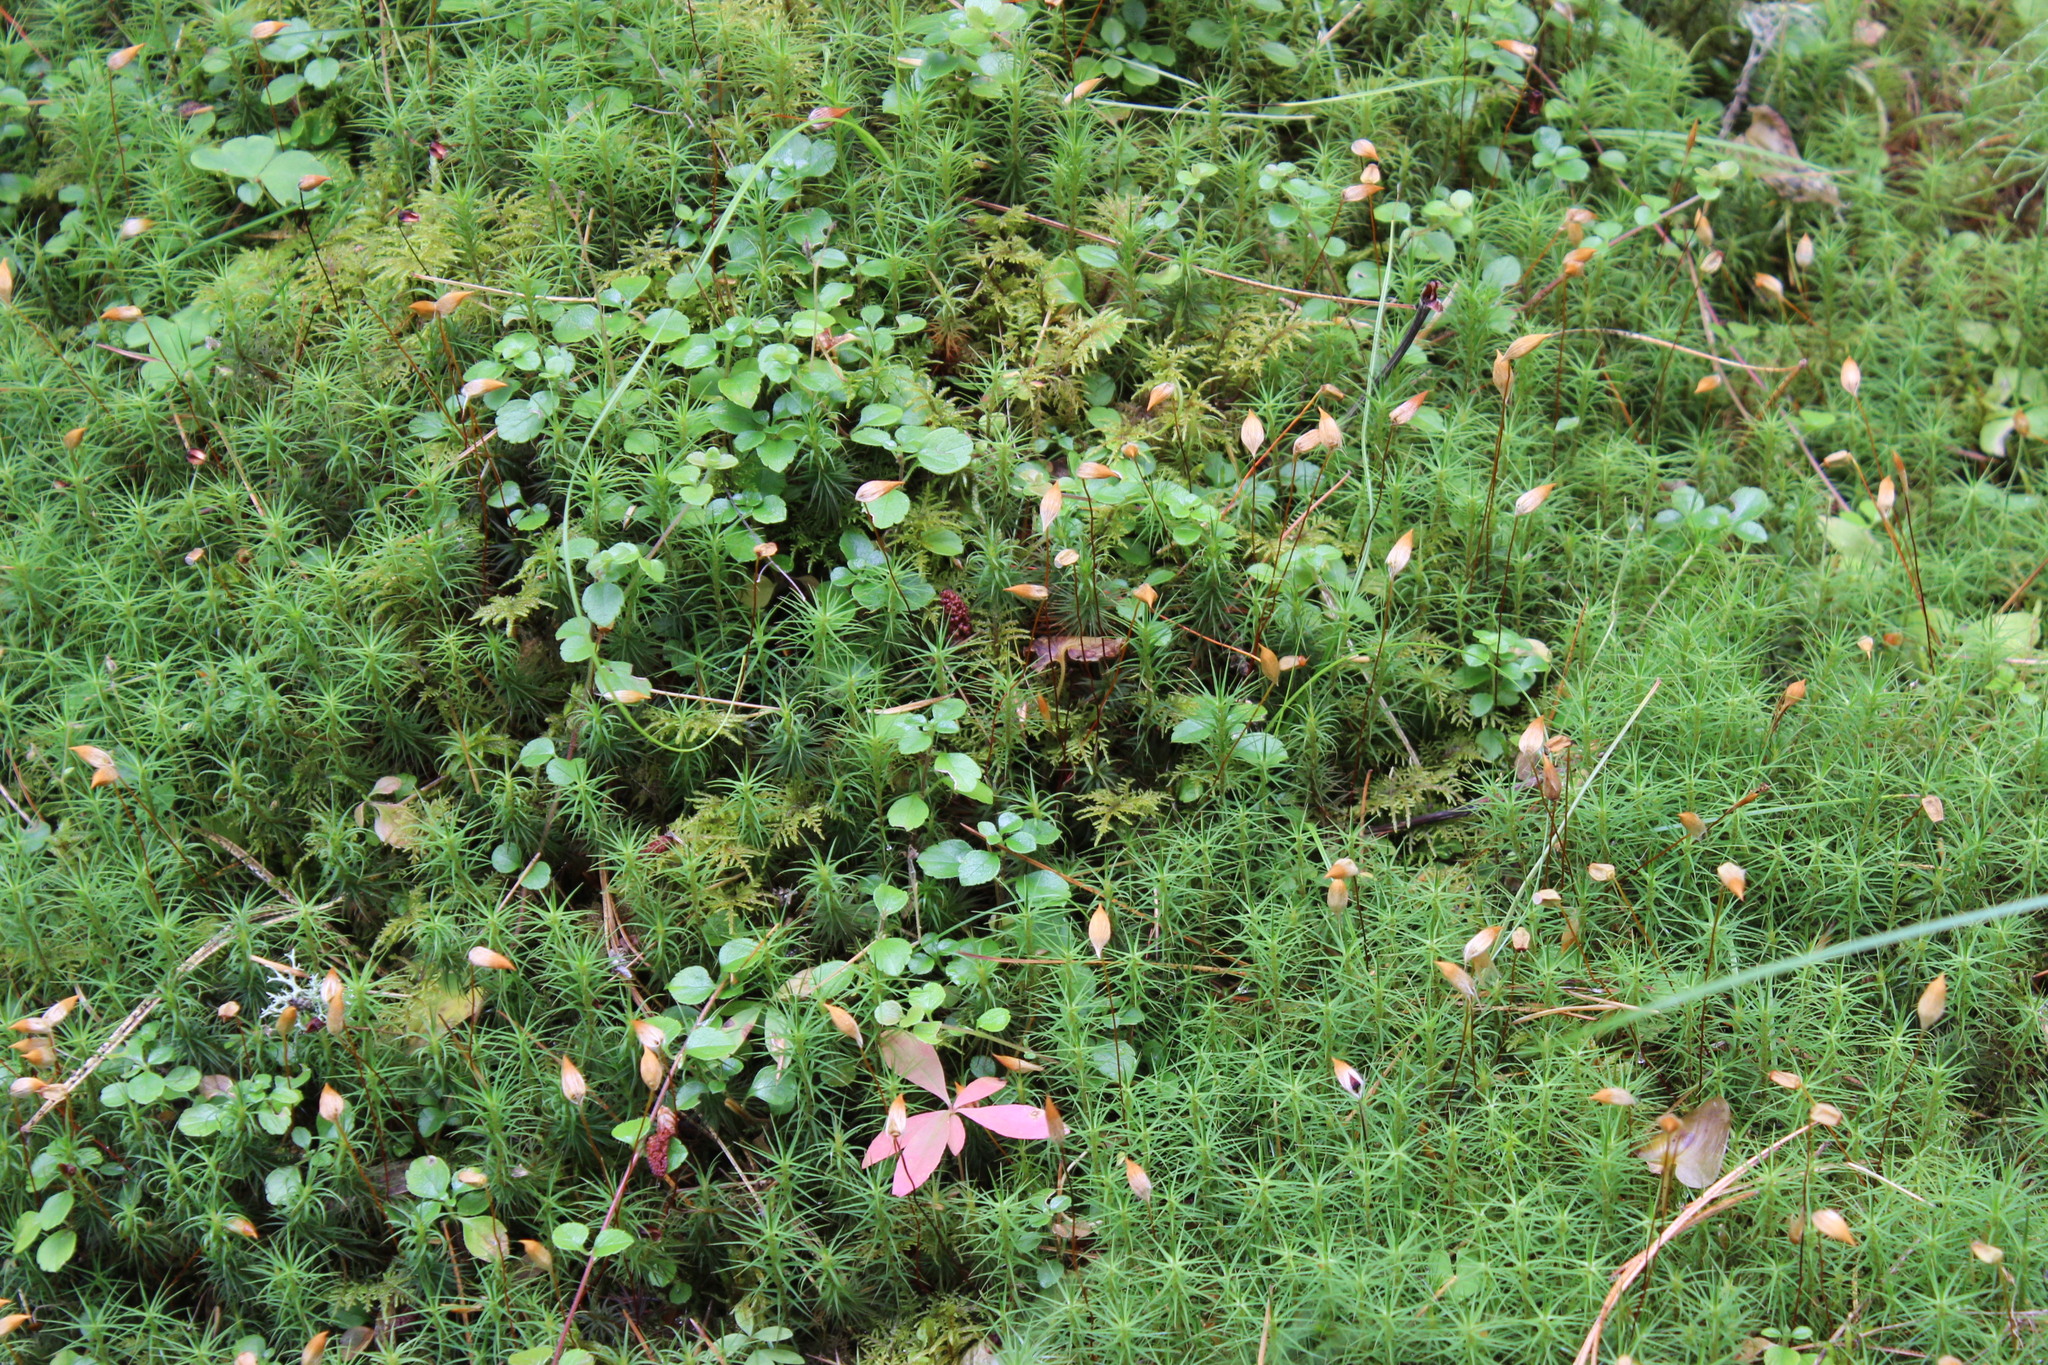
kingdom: Plantae
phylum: Bryophyta
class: Polytrichopsida
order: Polytrichales
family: Polytrichaceae
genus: Polytrichum
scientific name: Polytrichum commune
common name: Common haircap
